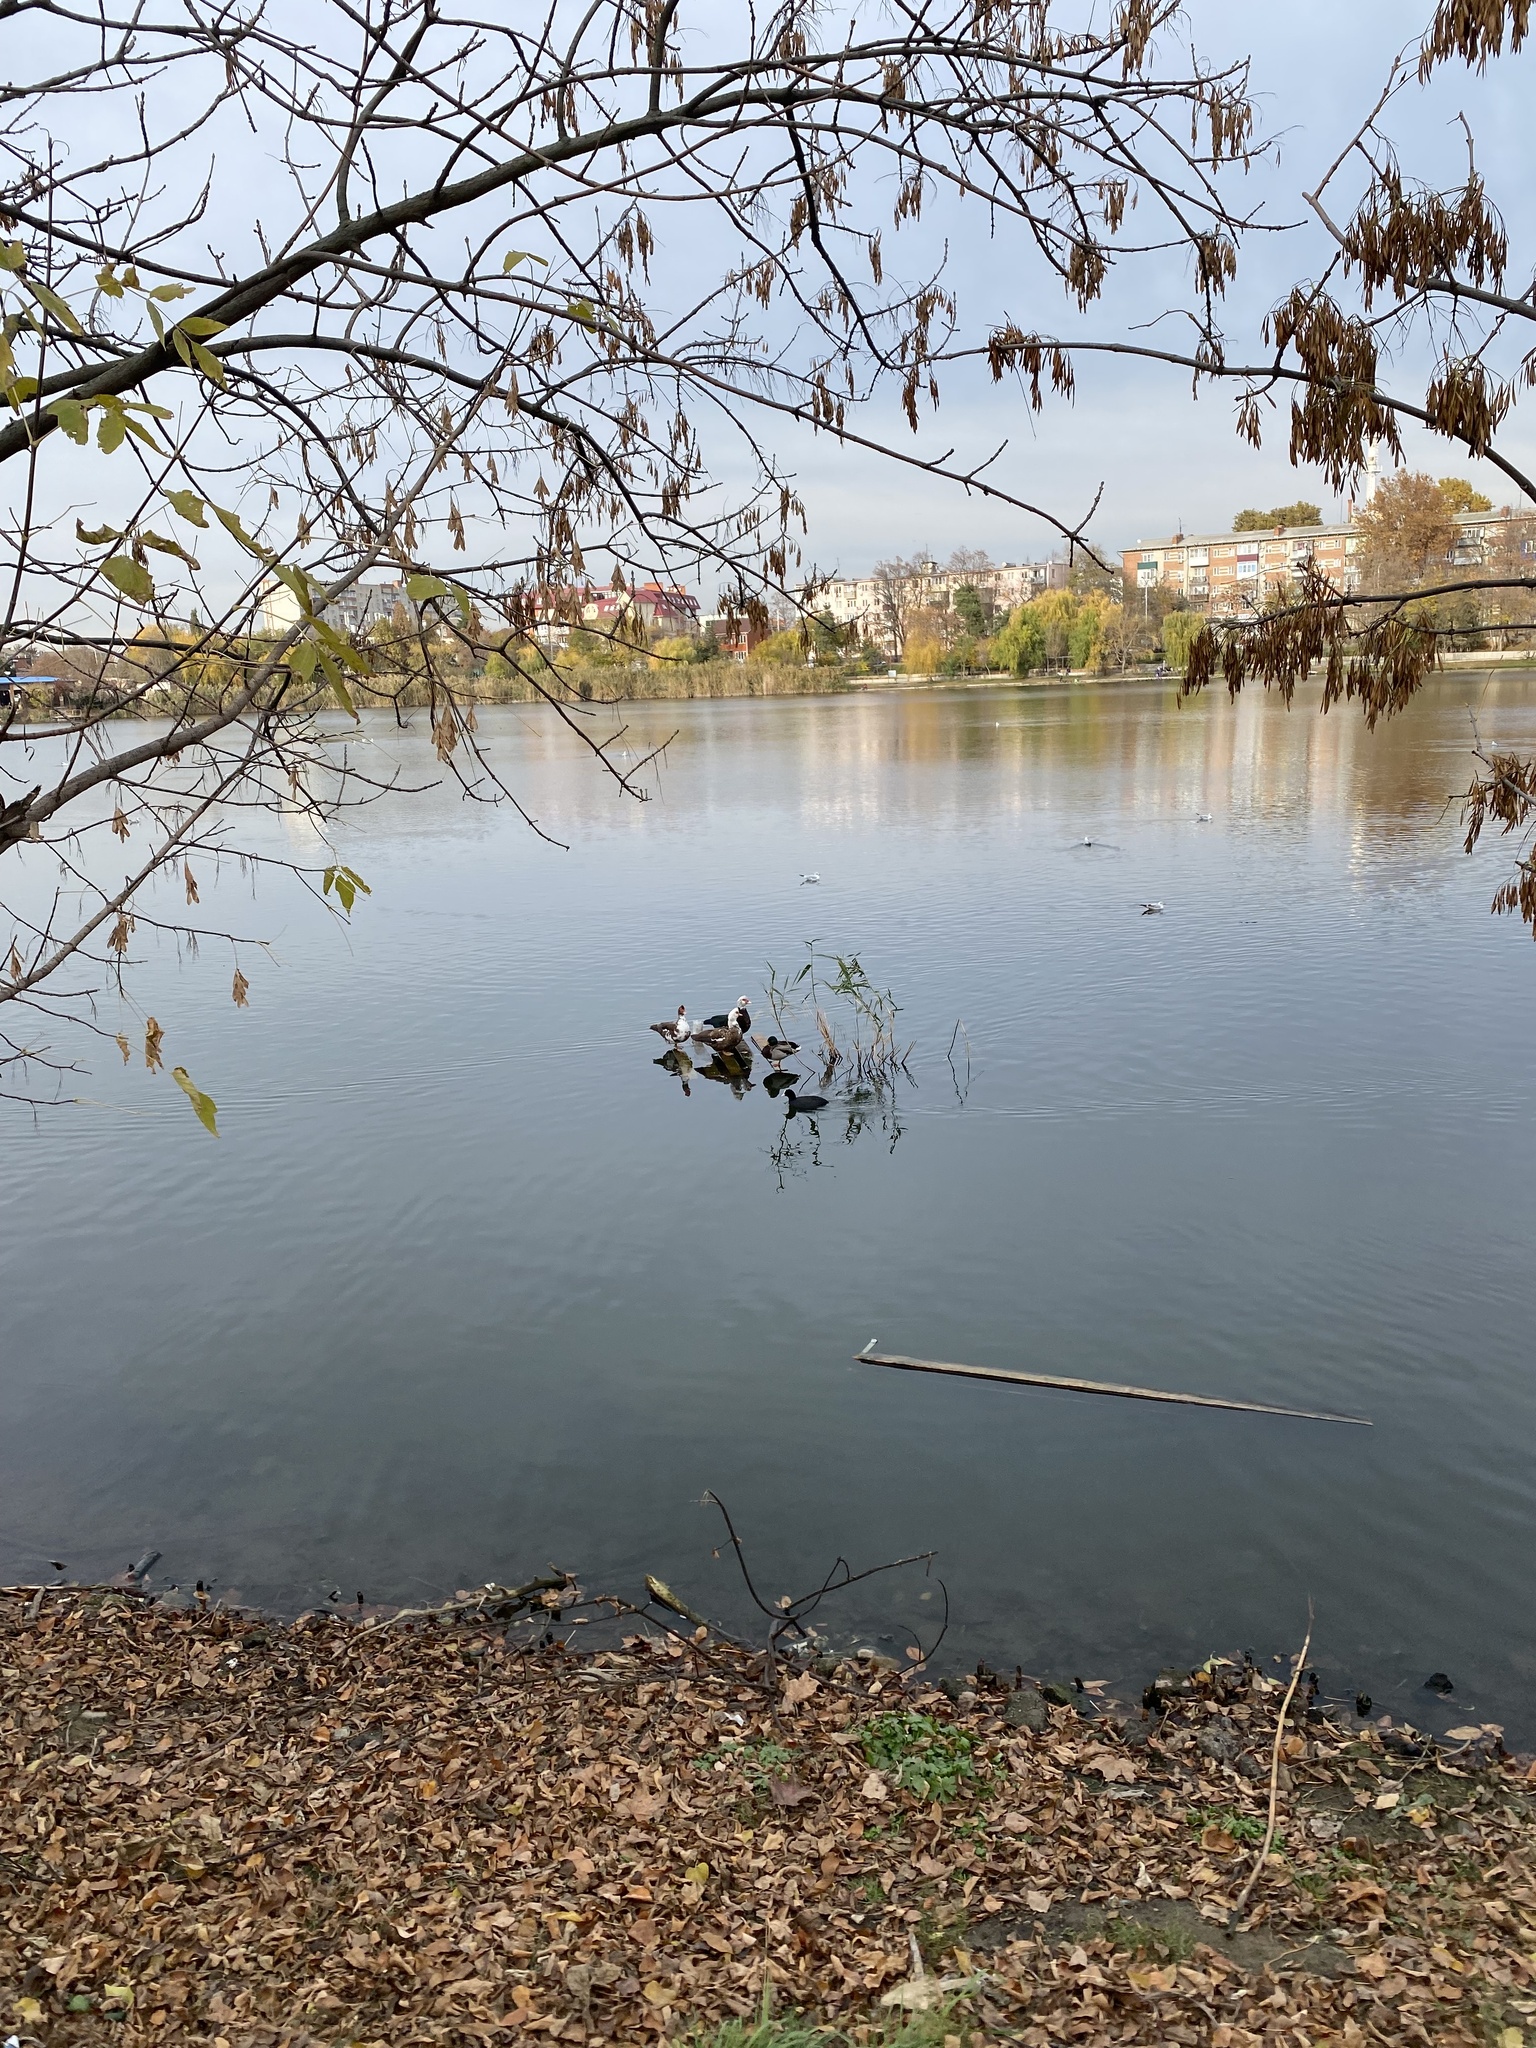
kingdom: Animalia
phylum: Chordata
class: Aves
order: Anseriformes
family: Anatidae
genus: Cairina
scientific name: Cairina moschata
